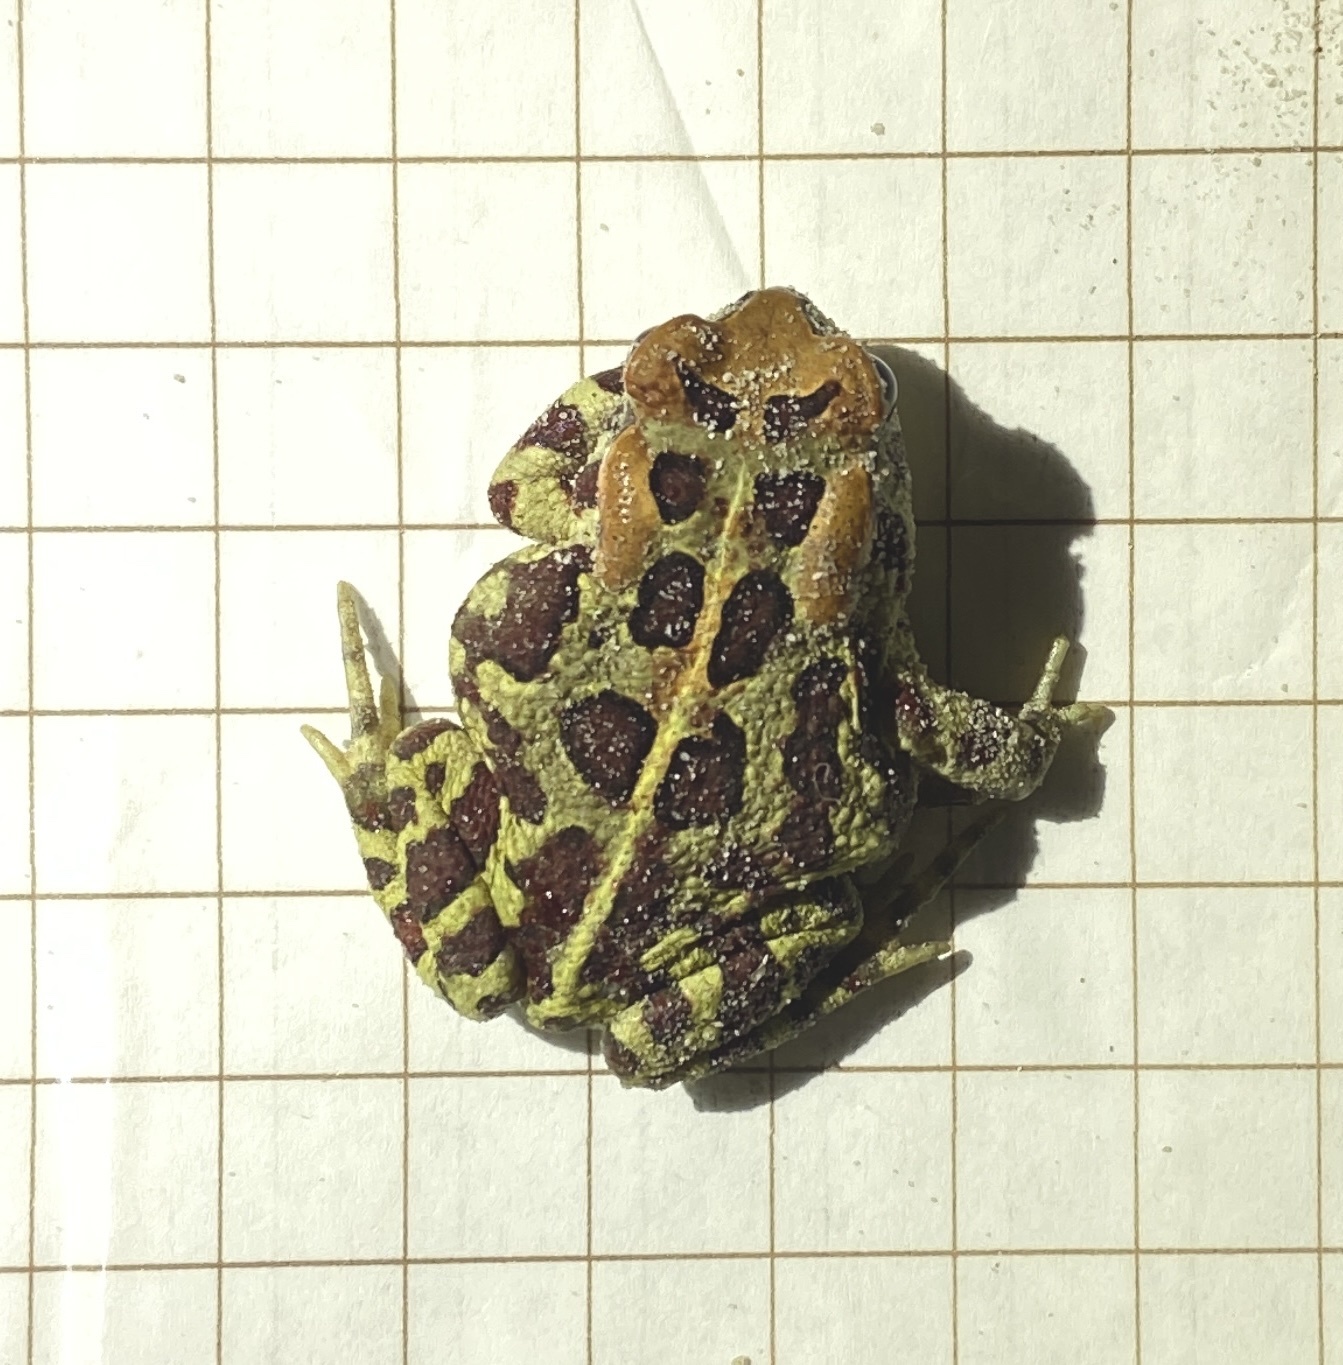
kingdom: Animalia
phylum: Chordata
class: Amphibia
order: Anura
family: Bufonidae
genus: Sclerophrys
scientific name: Sclerophrys pantherina
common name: Panther toad
